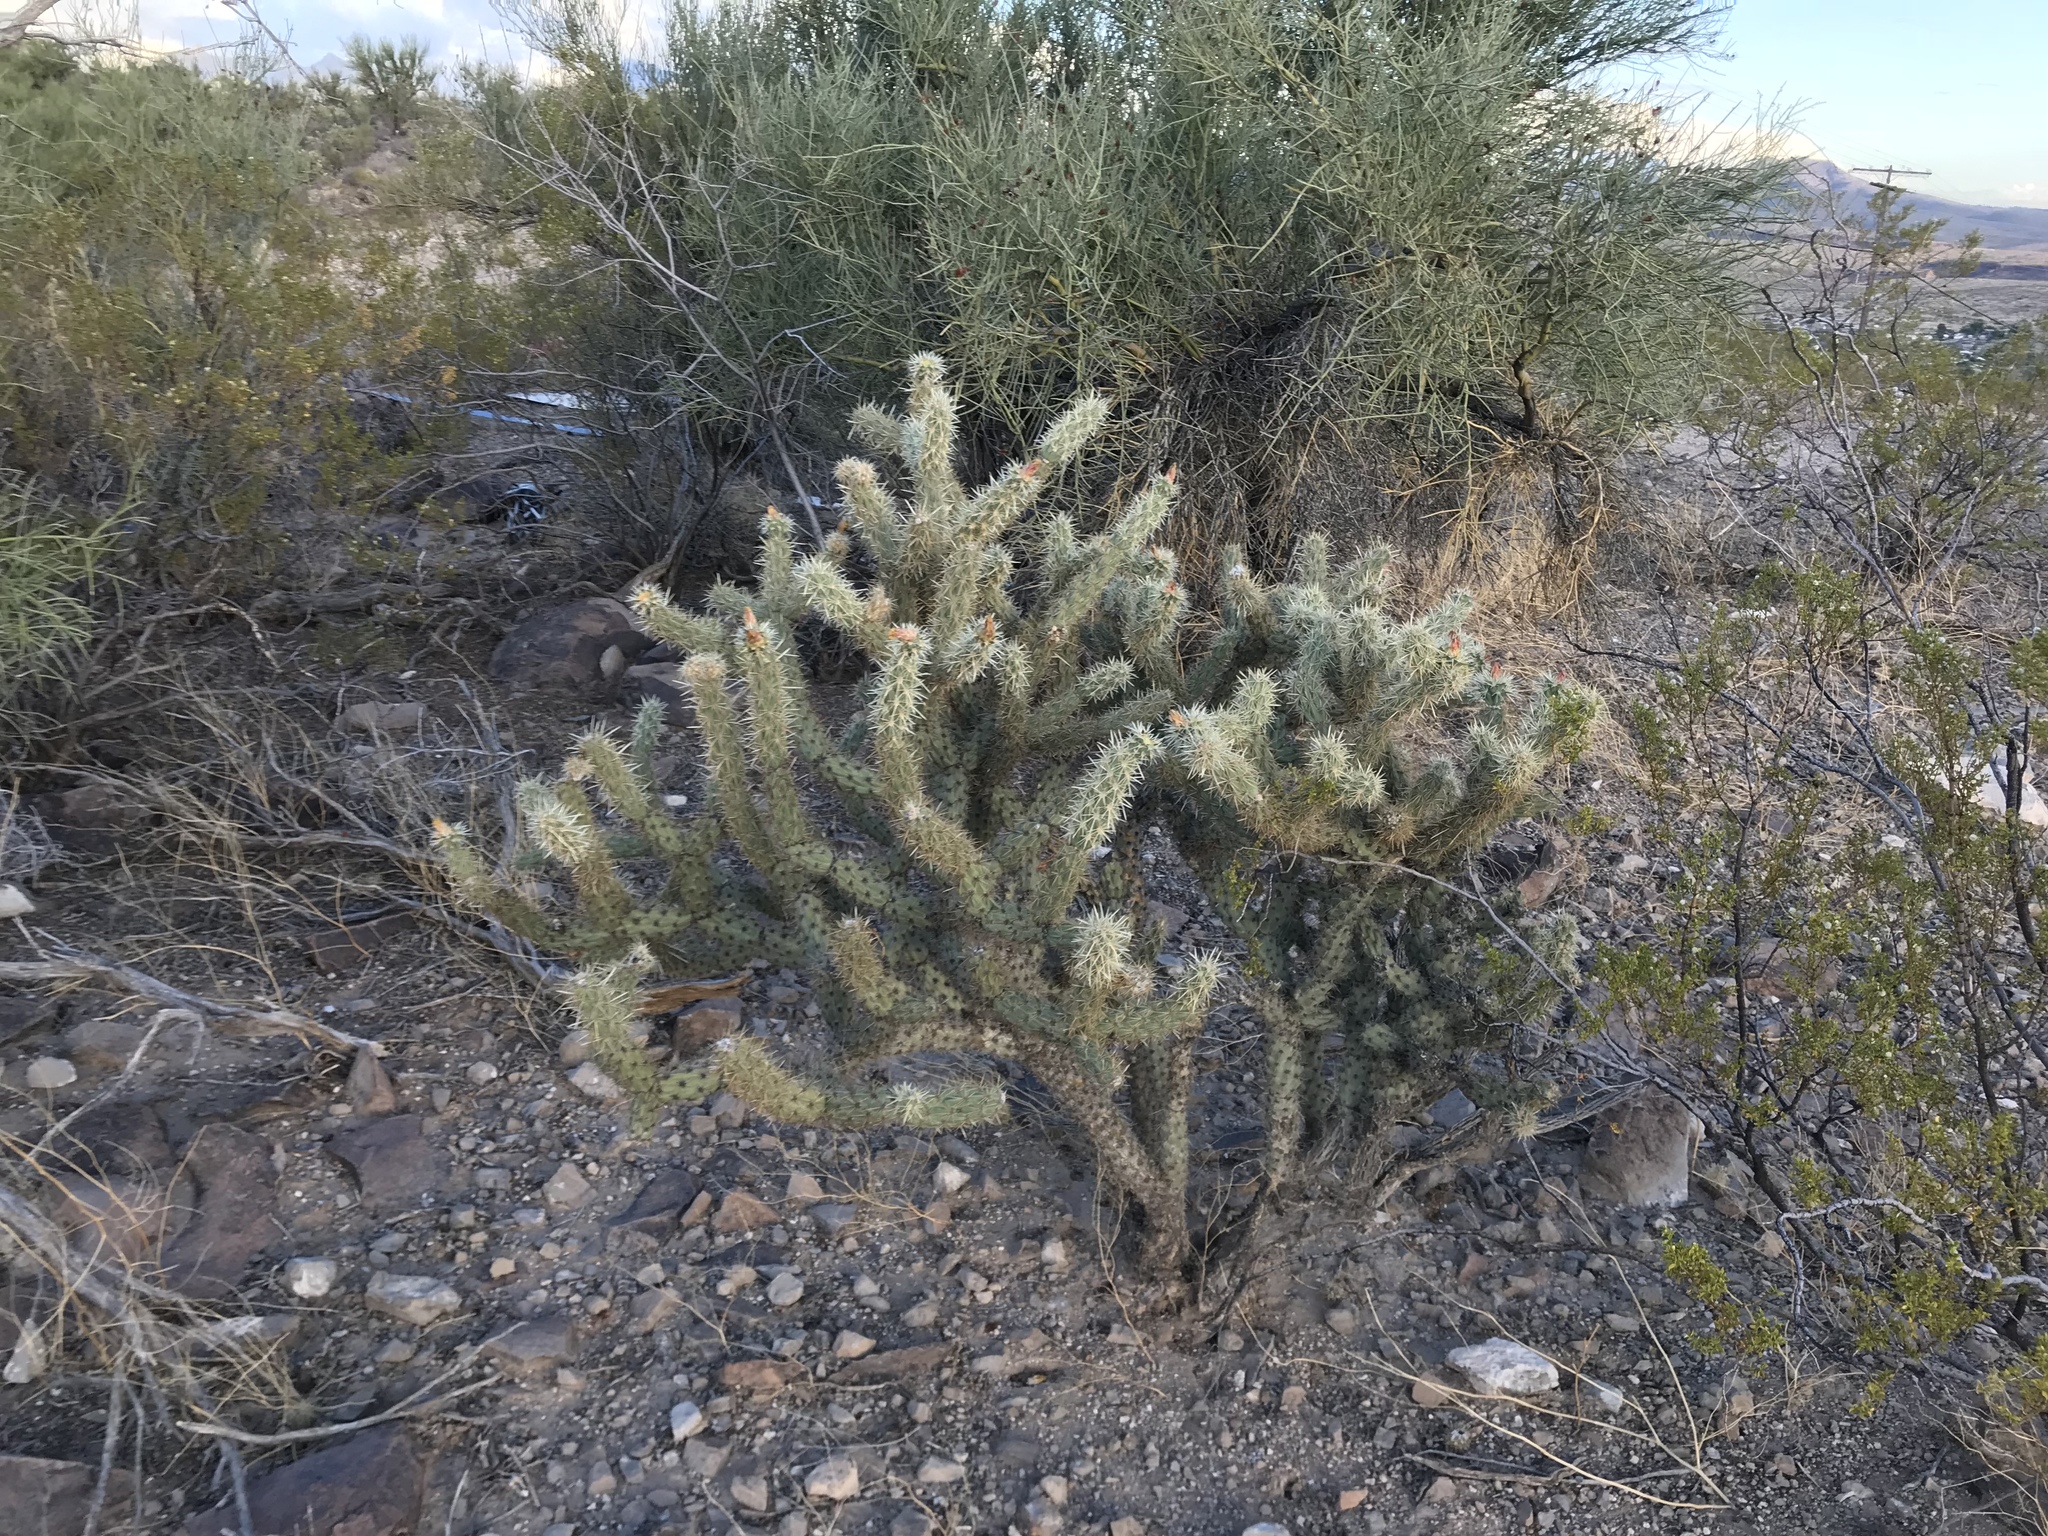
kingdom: Plantae
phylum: Tracheophyta
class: Magnoliopsida
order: Caryophyllales
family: Cactaceae
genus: Cylindropuntia
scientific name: Cylindropuntia acanthocarpa
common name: Buckhorn cholla
